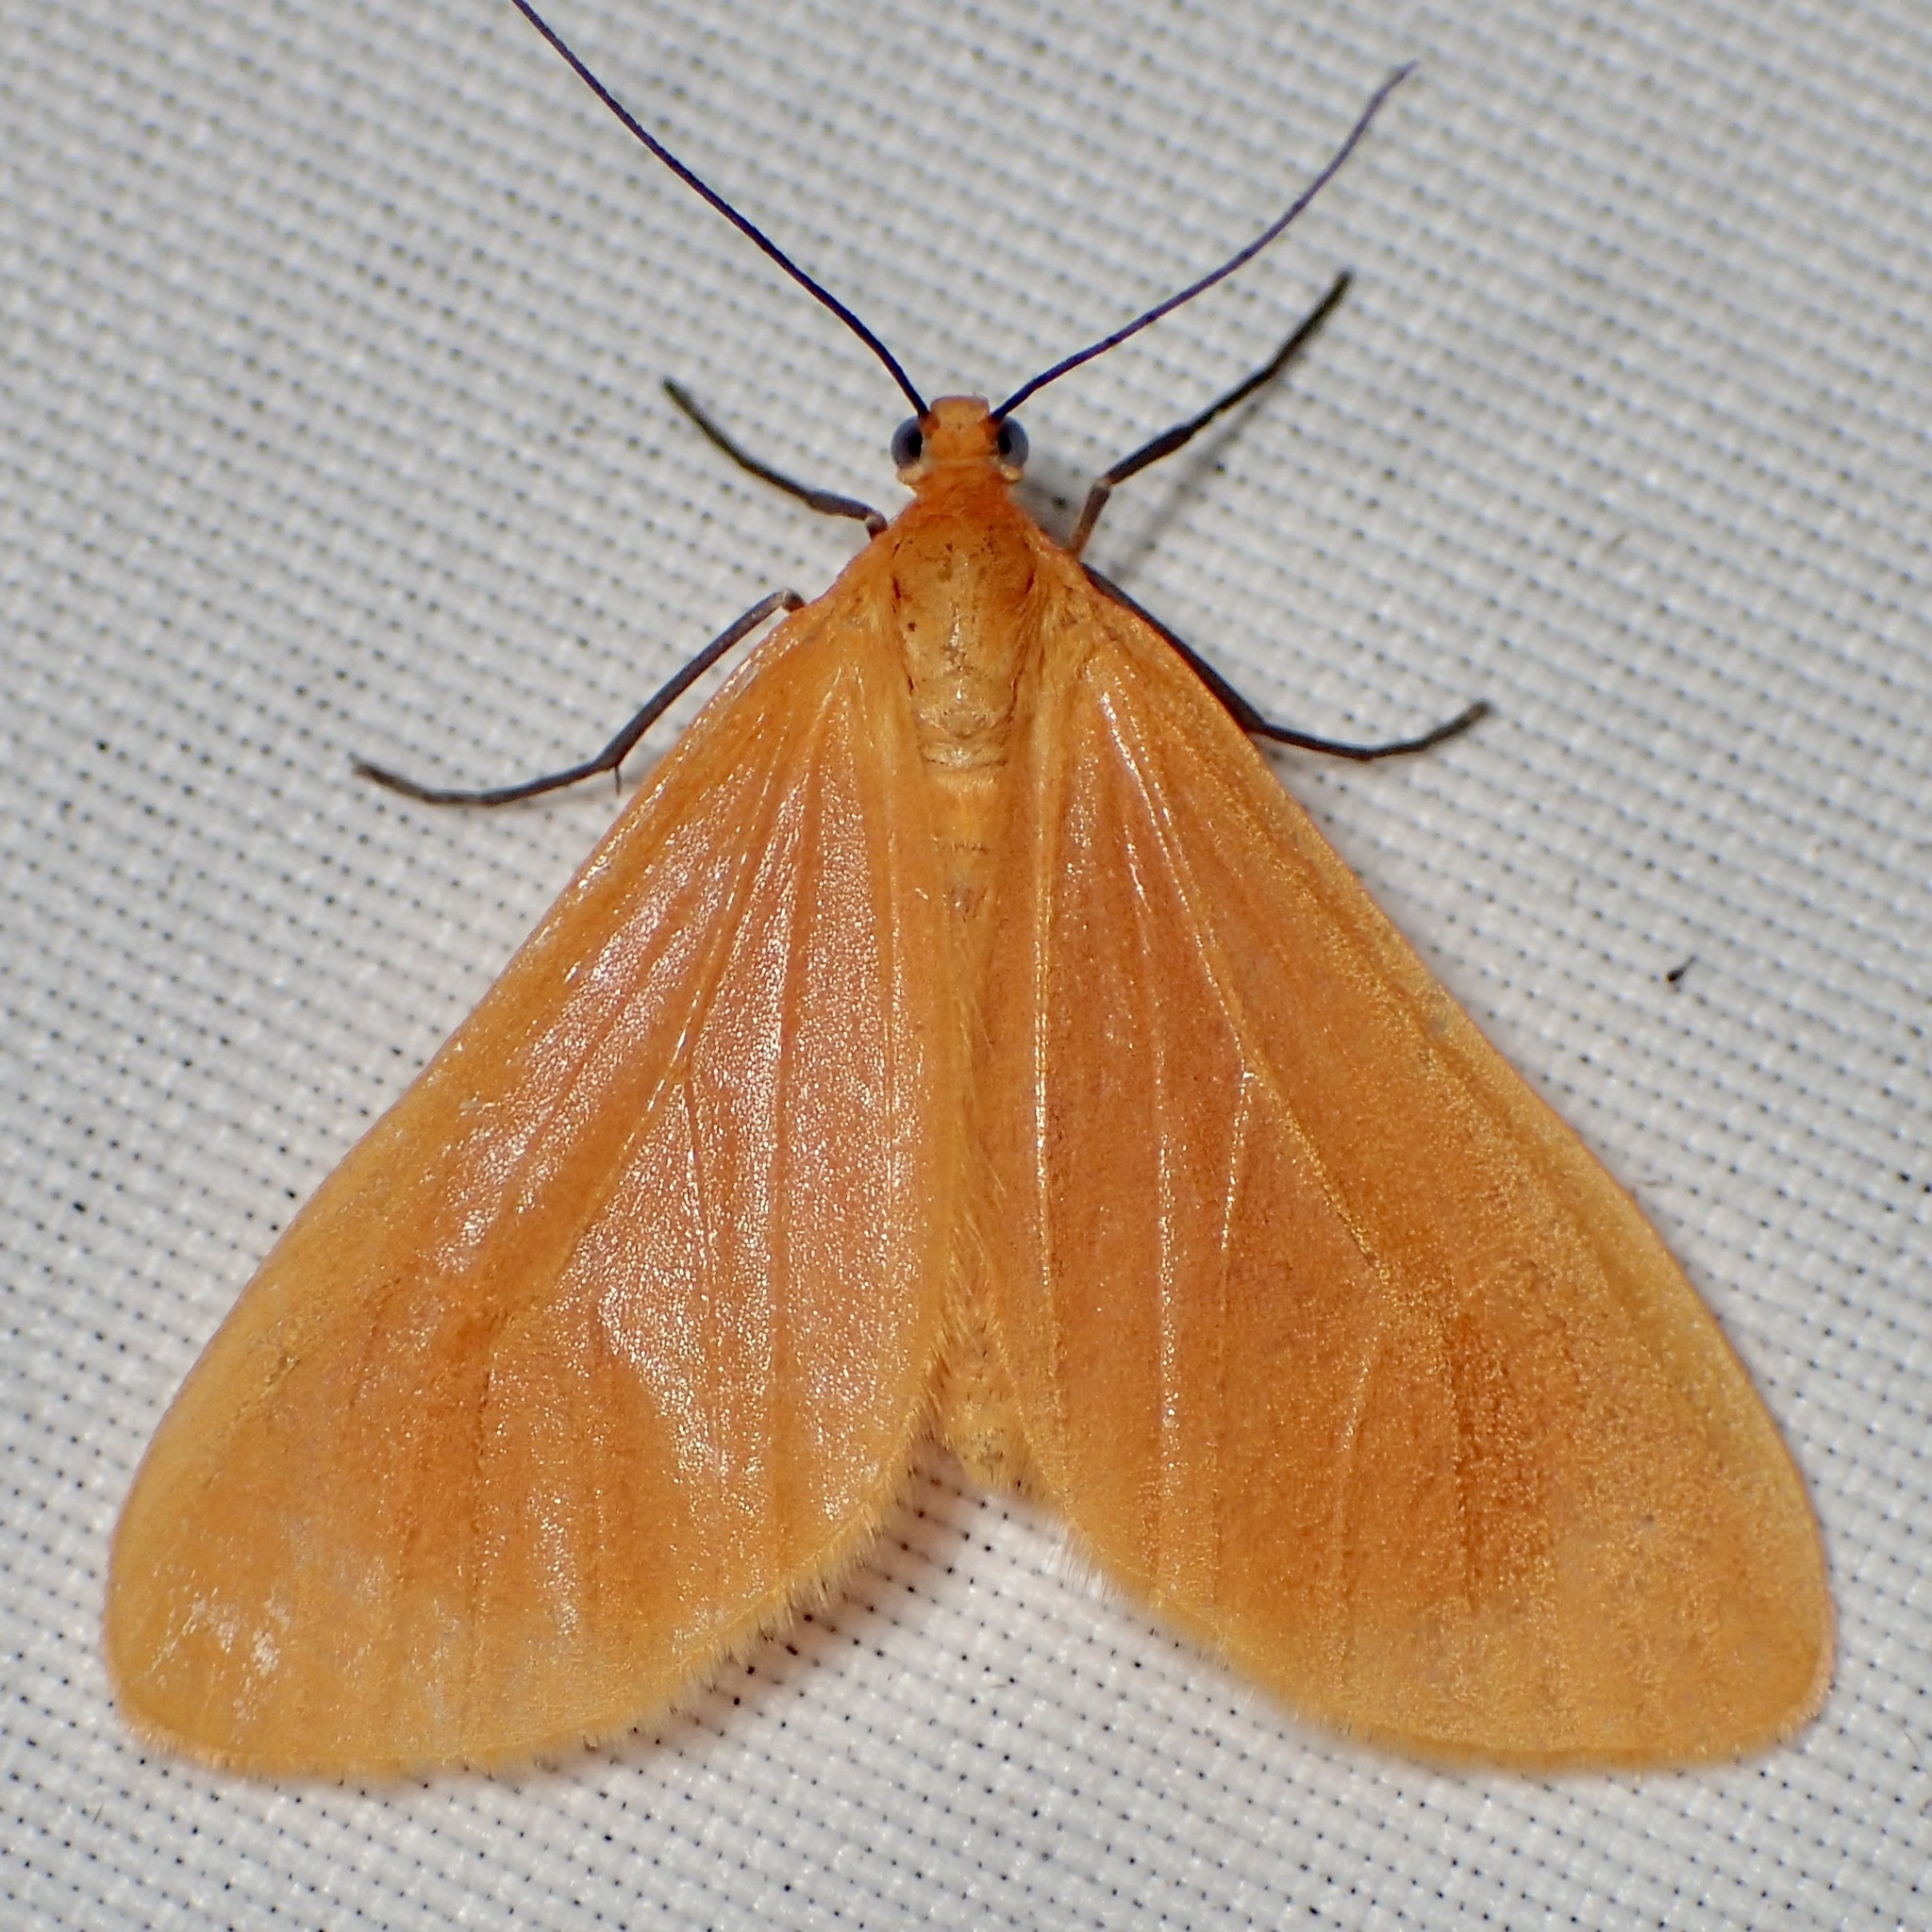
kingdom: Animalia
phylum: Arthropoda
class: Insecta
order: Lepidoptera
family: Geometridae
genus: Eubaphe
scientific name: Eubaphe unicolor
